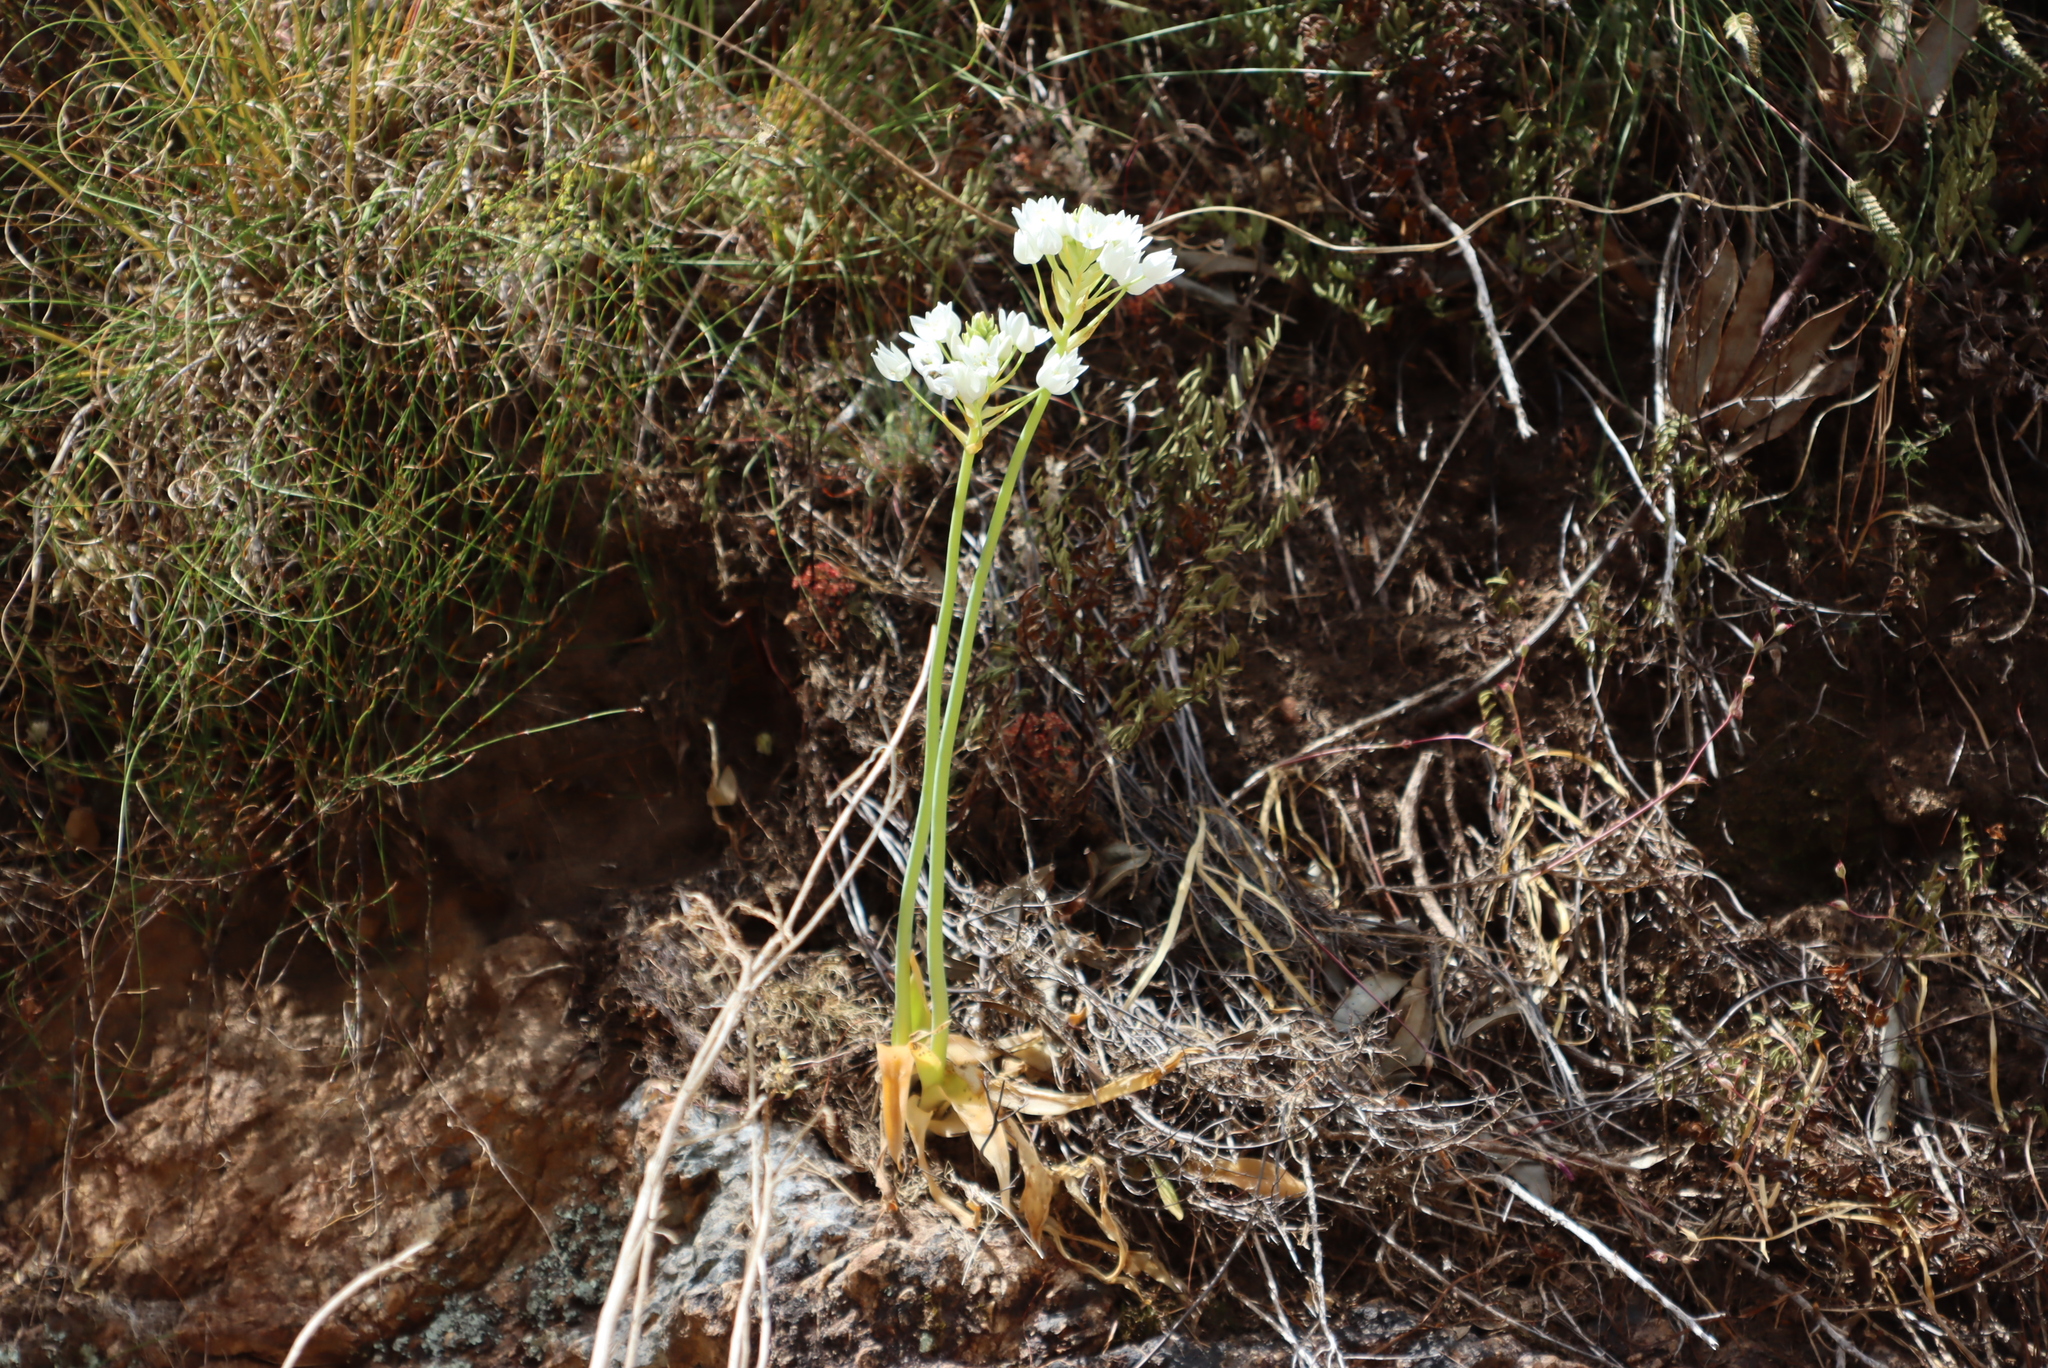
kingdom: Plantae
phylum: Tracheophyta
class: Liliopsida
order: Asparagales
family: Asparagaceae
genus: Ornithogalum
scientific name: Ornithogalum thyrsoides
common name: Chincherinchee
